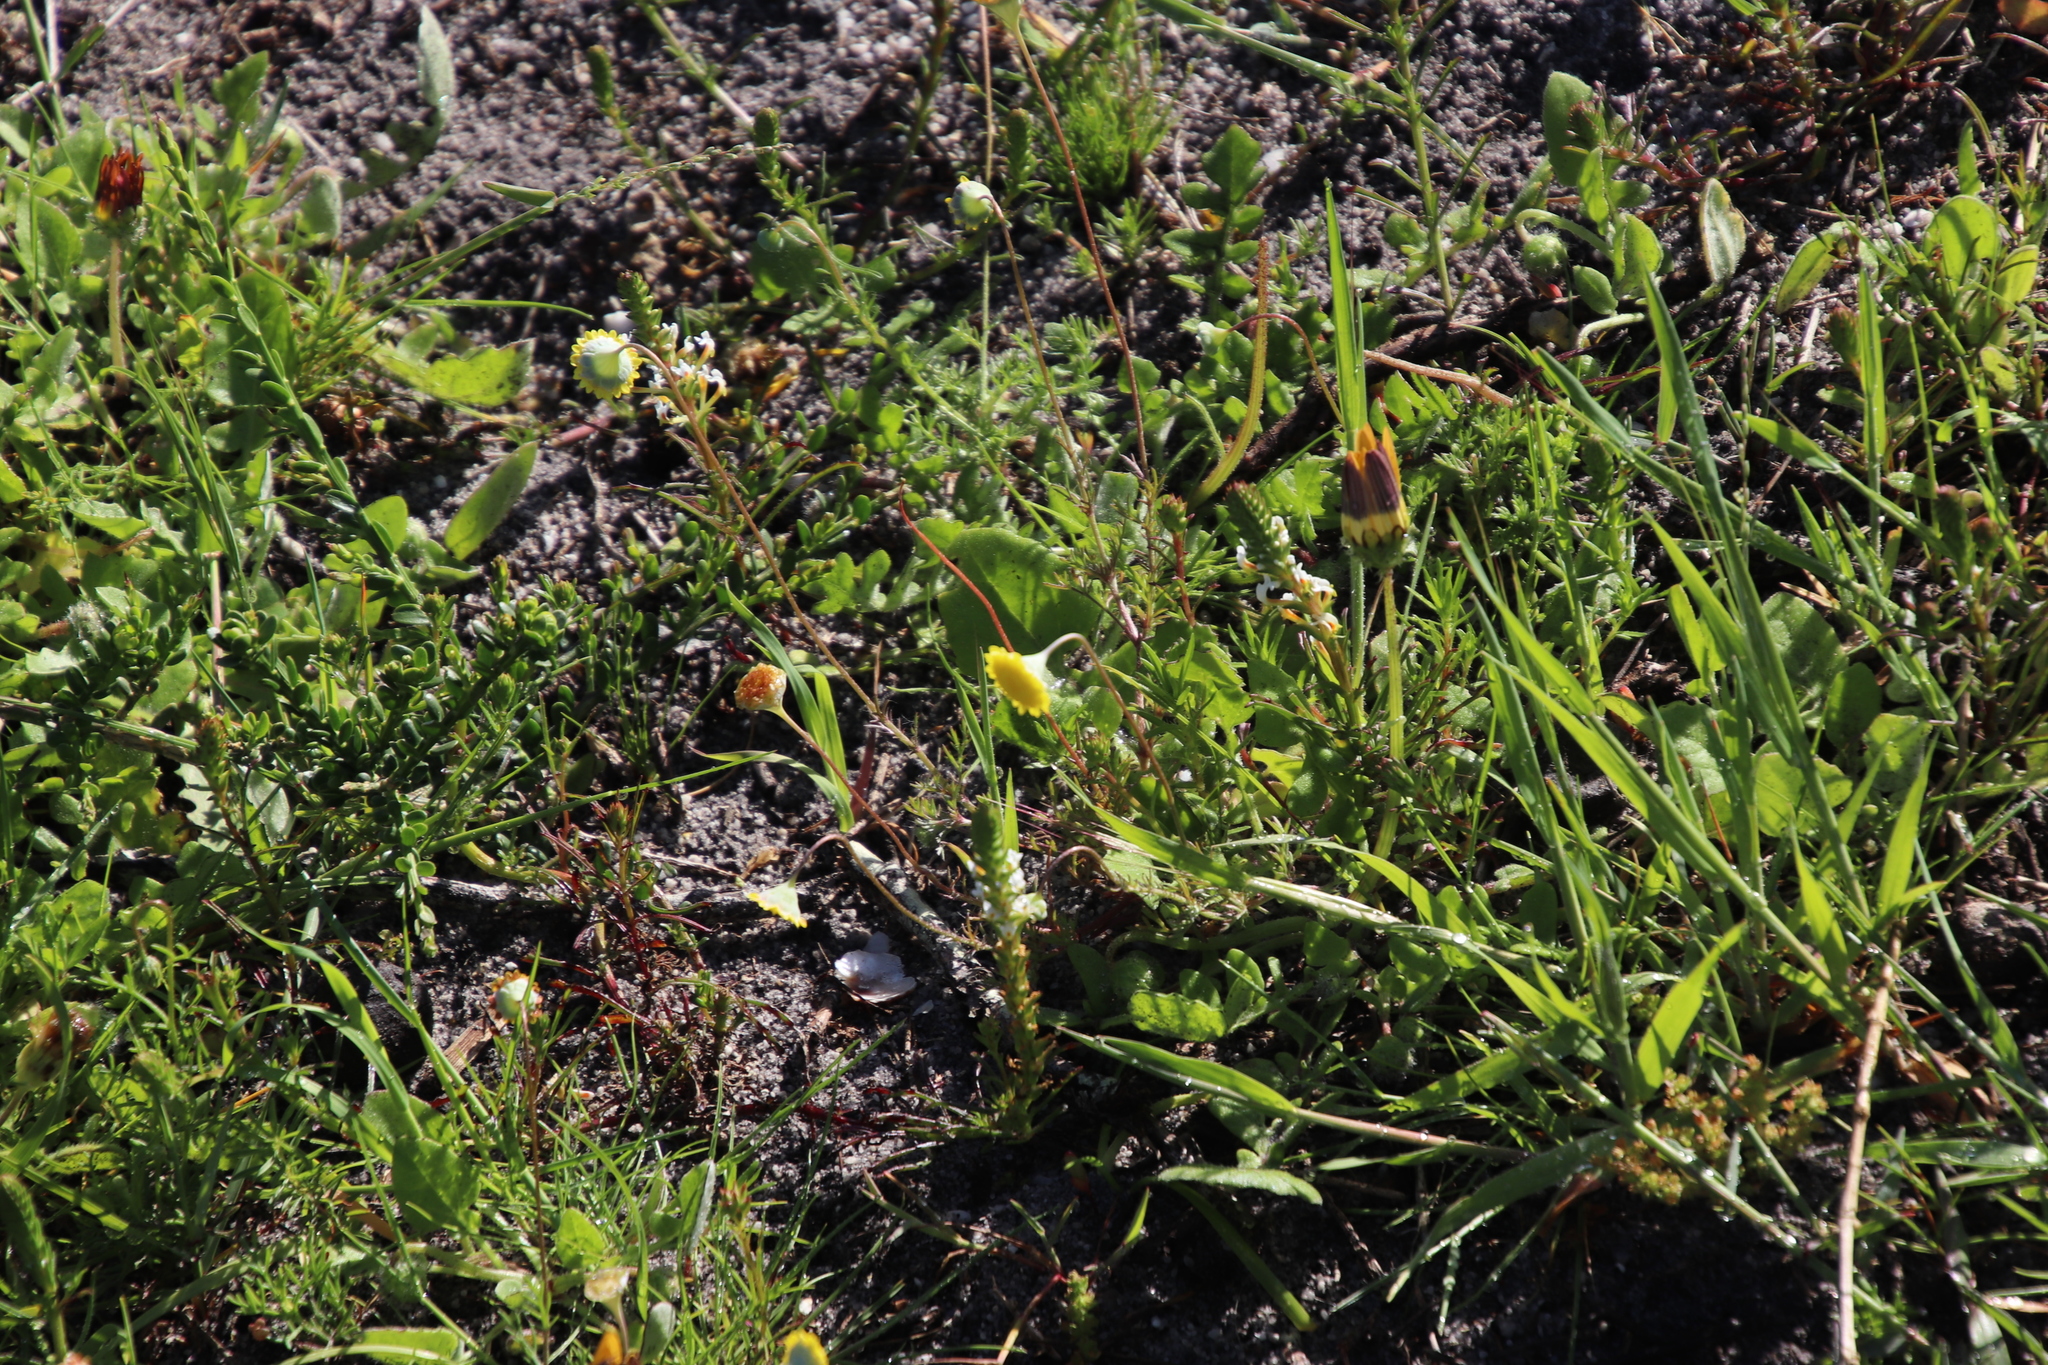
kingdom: Plantae
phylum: Tracheophyta
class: Magnoliopsida
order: Asterales
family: Asteraceae
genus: Cotula
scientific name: Cotula pruinosa
